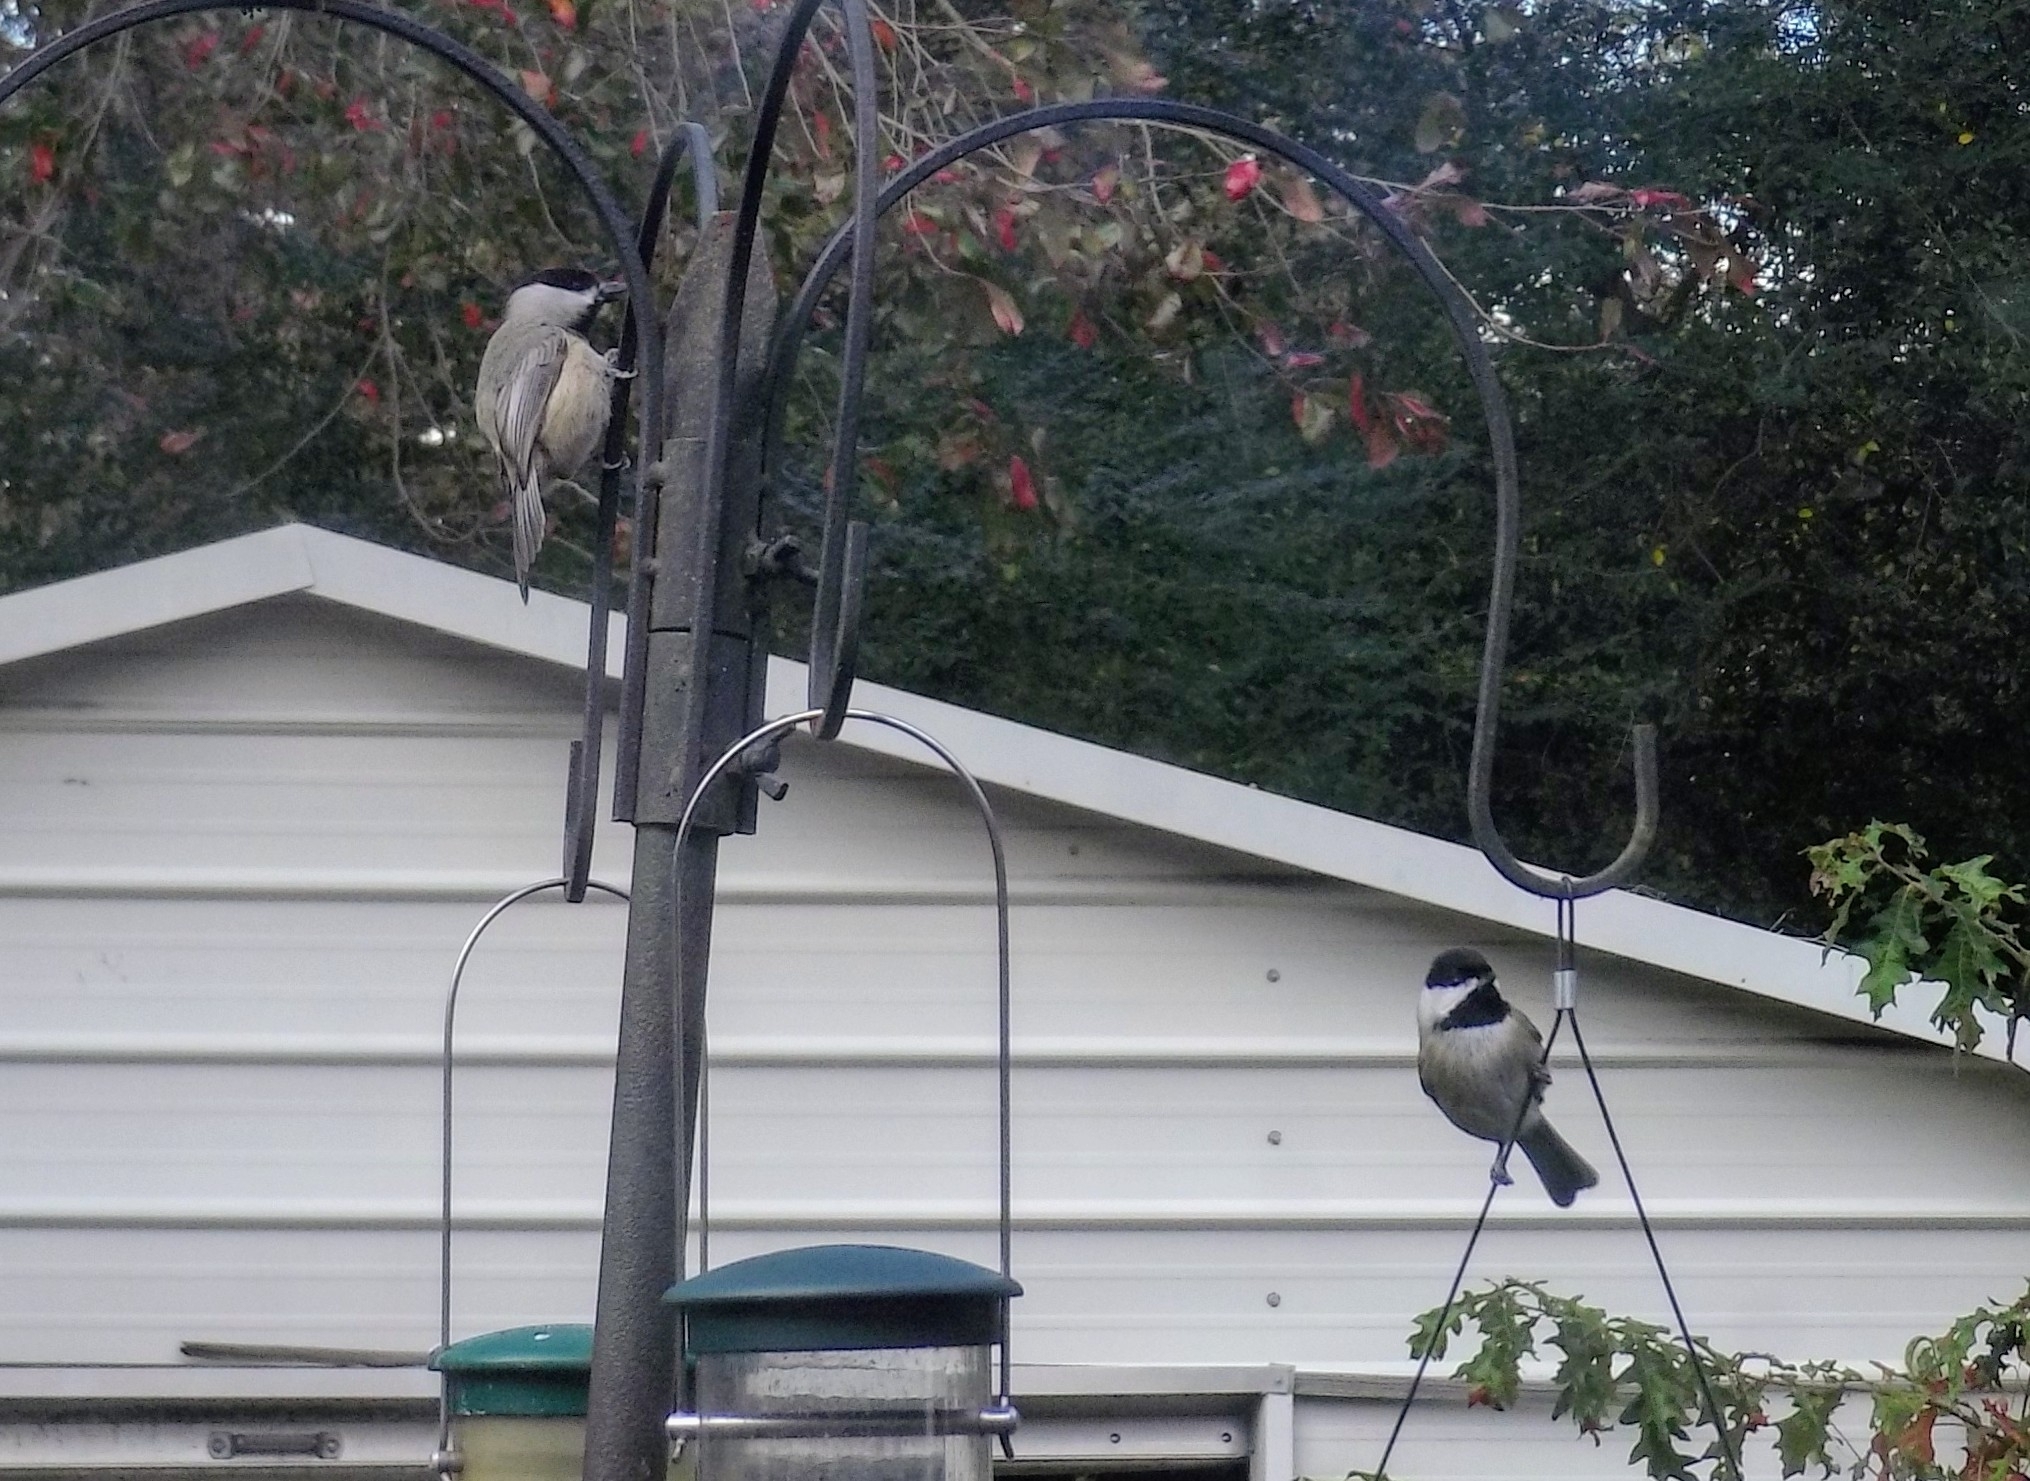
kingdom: Animalia
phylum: Chordata
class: Aves
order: Passeriformes
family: Paridae
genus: Poecile
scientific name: Poecile carolinensis
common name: Carolina chickadee
